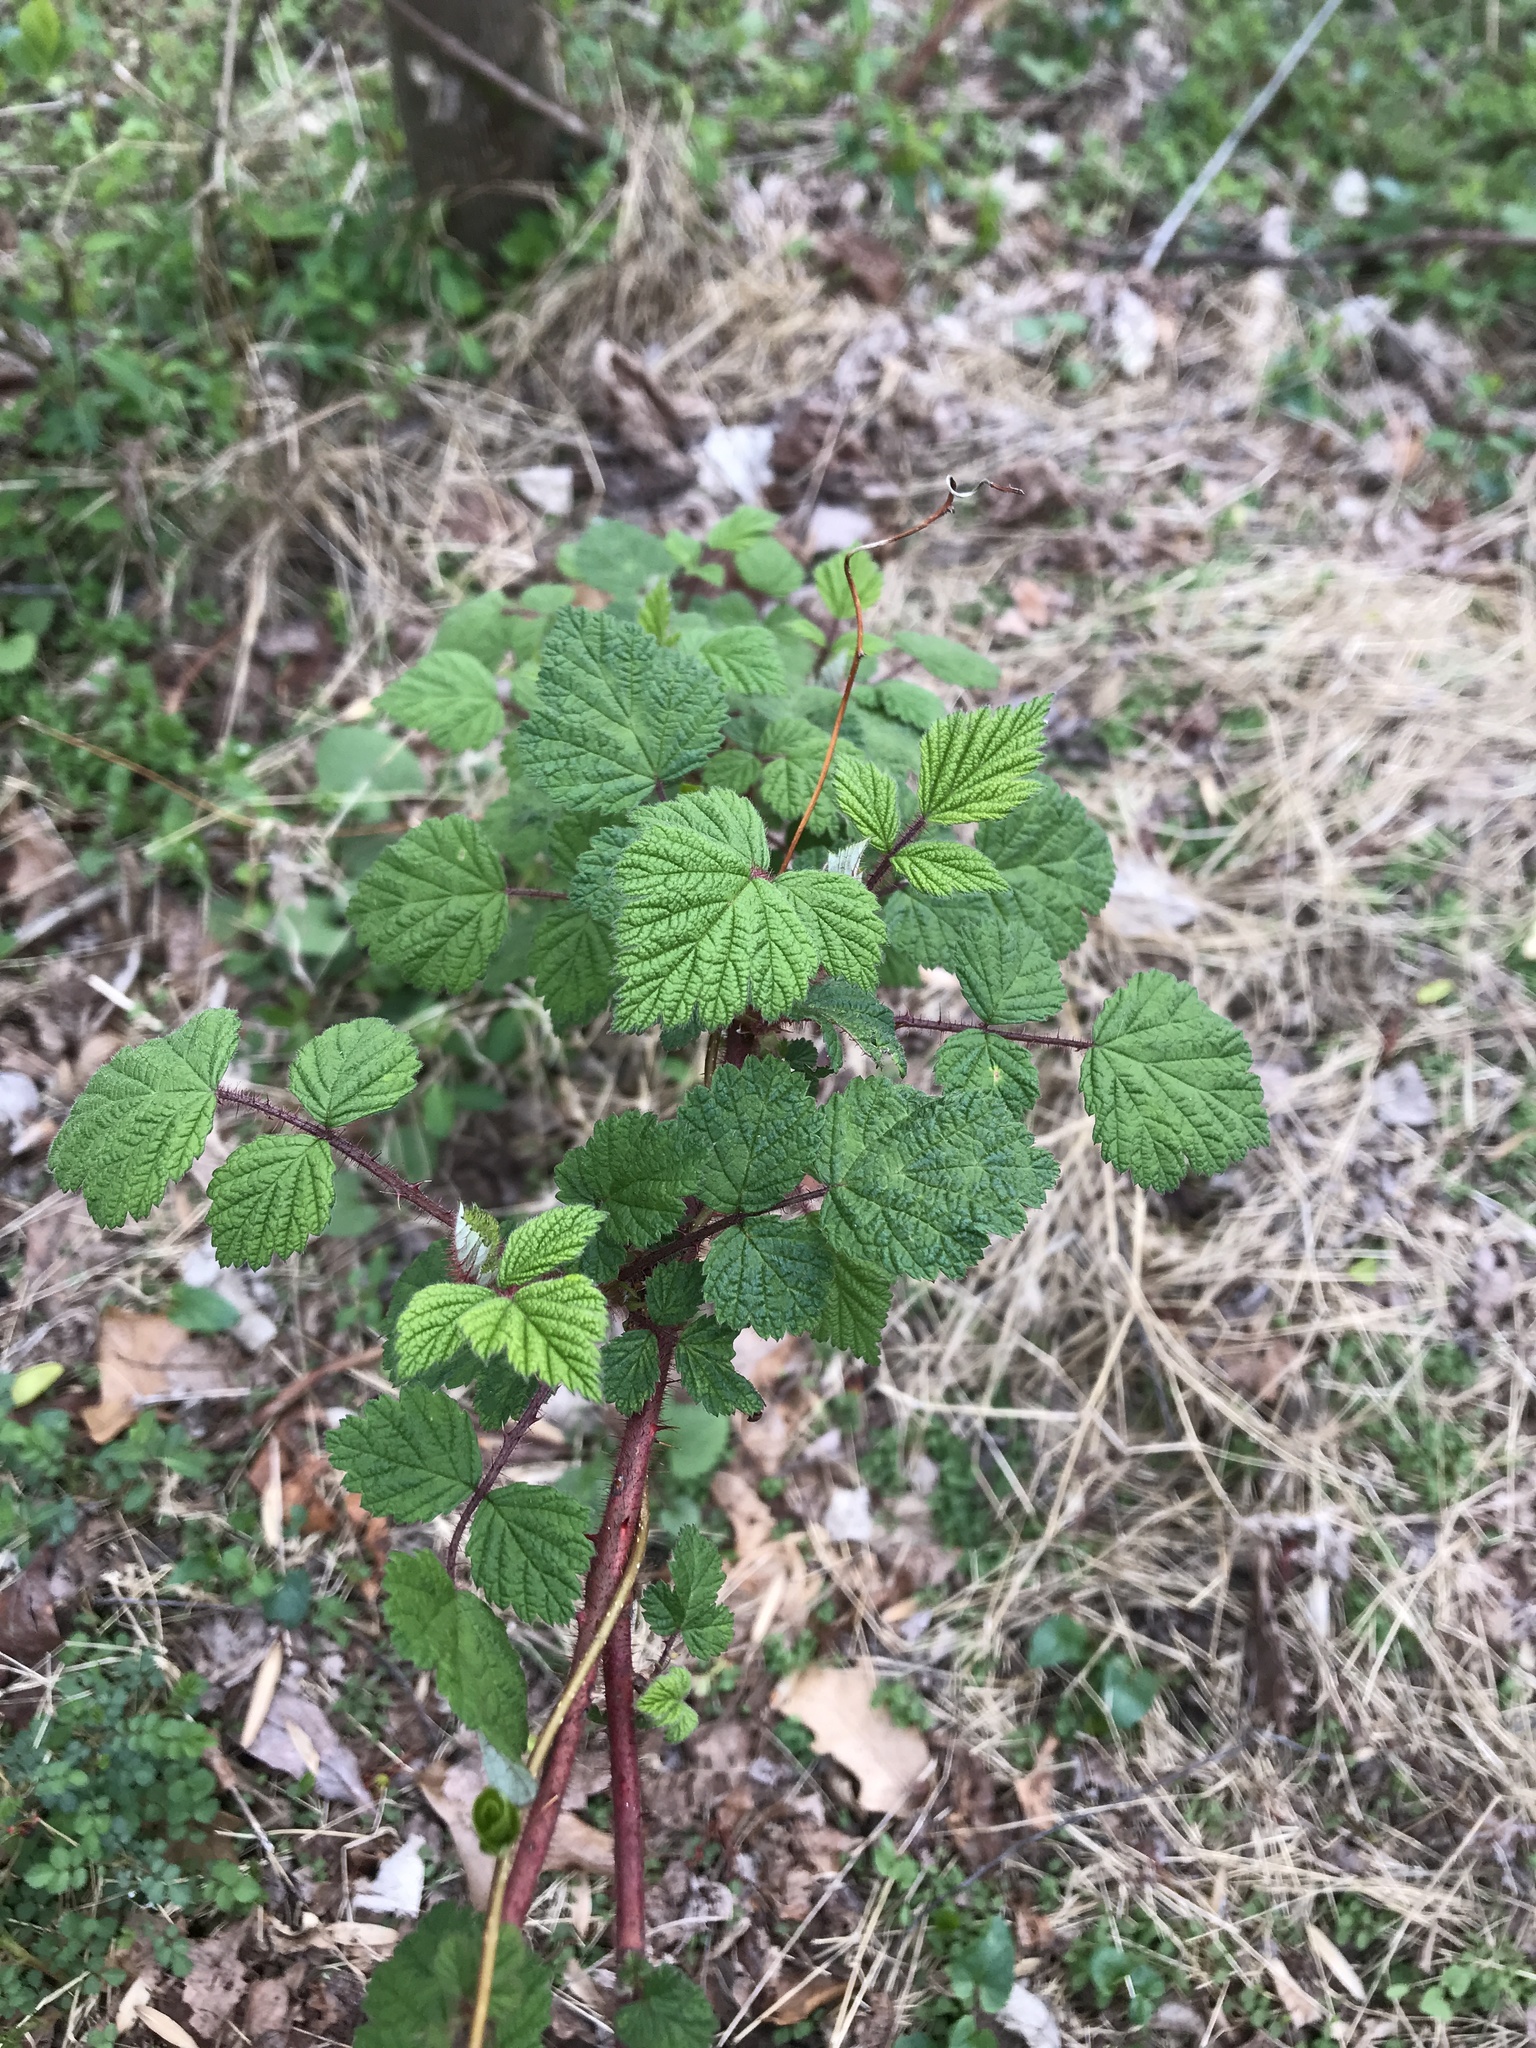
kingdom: Plantae
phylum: Tracheophyta
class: Magnoliopsida
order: Rosales
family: Rosaceae
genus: Rubus
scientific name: Rubus phoenicolasius
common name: Japanese wineberry
